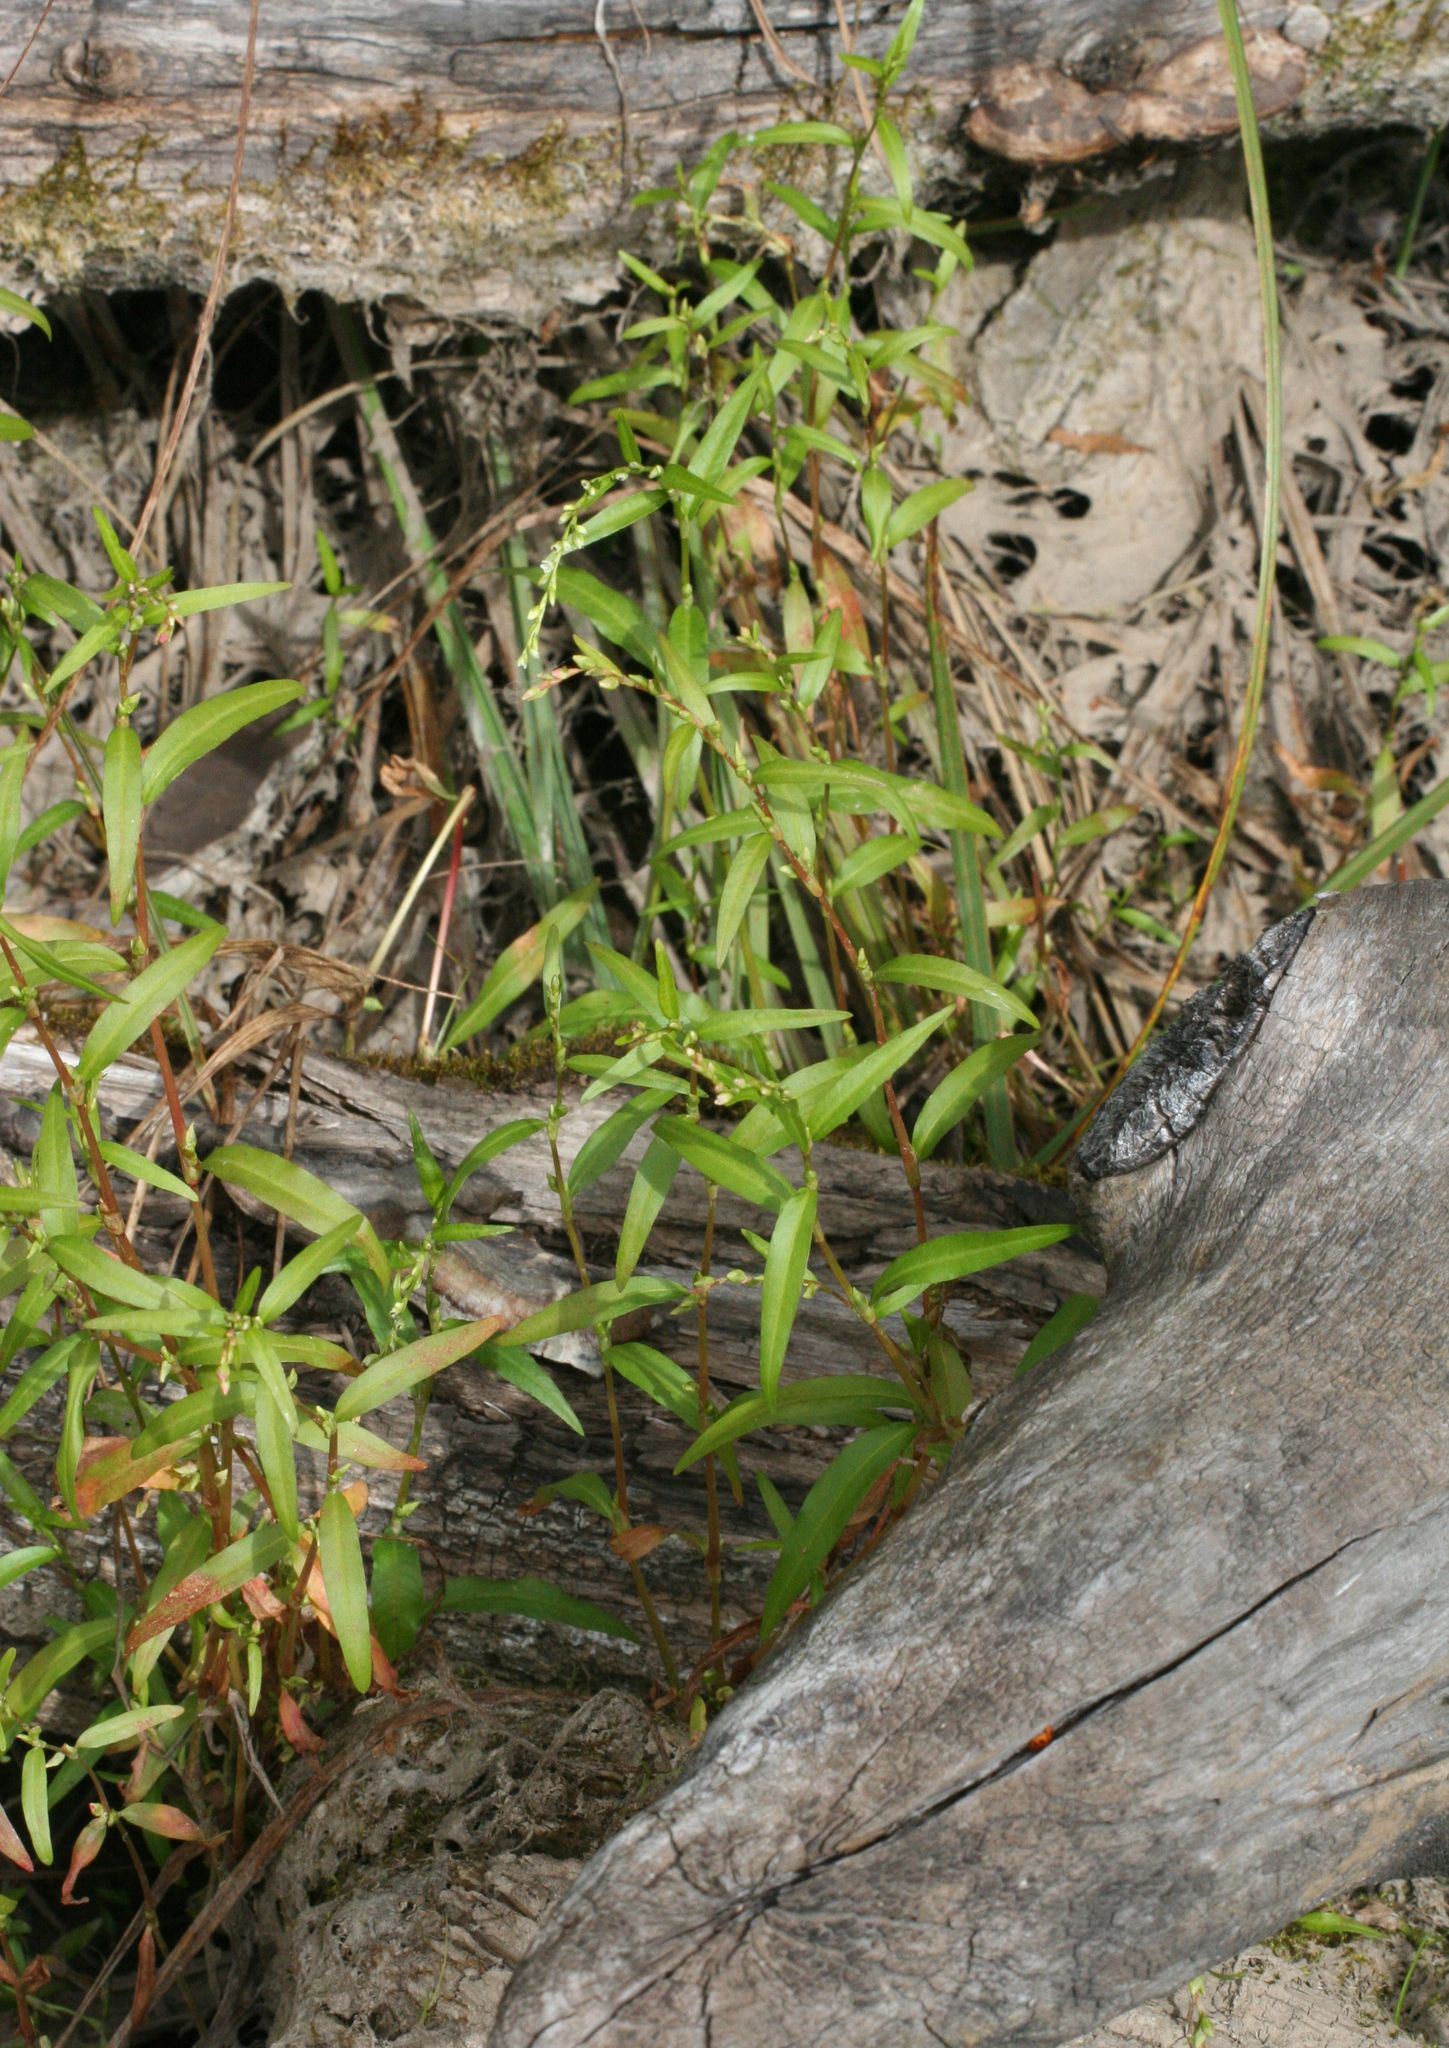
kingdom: Plantae
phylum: Tracheophyta
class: Magnoliopsida
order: Caryophyllales
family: Polygonaceae
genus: Persicaria
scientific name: Persicaria hydropiper
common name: Water-pepper
